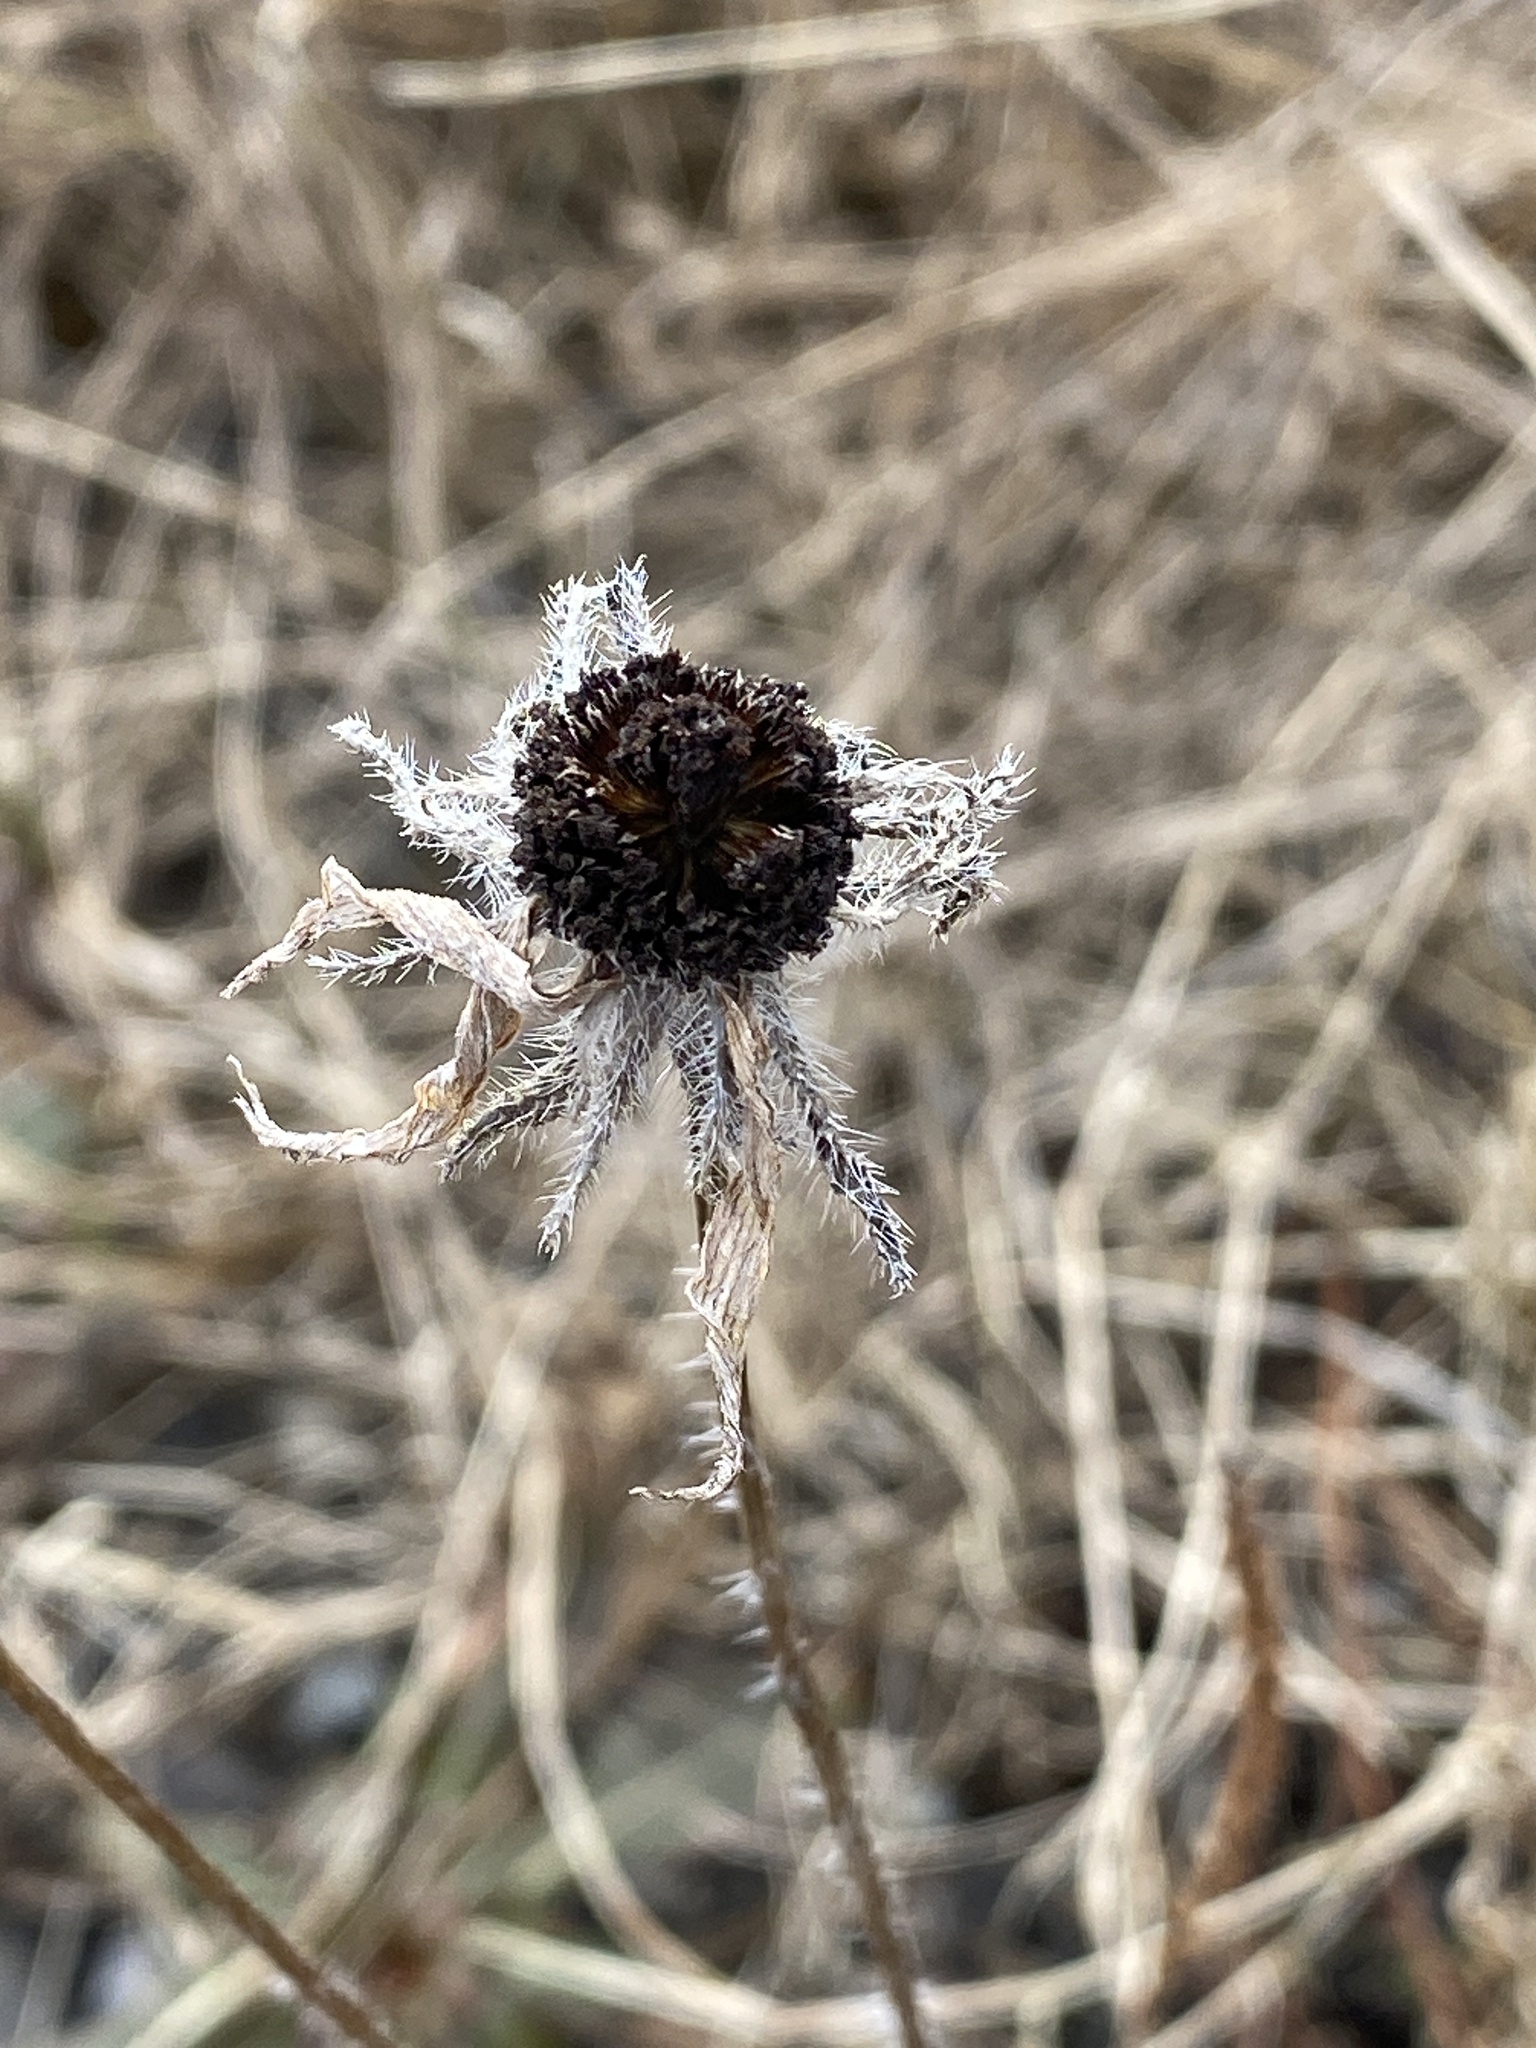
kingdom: Plantae
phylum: Tracheophyta
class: Magnoliopsida
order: Asterales
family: Asteraceae
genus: Rudbeckia
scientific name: Rudbeckia hirta
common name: Black-eyed-susan
